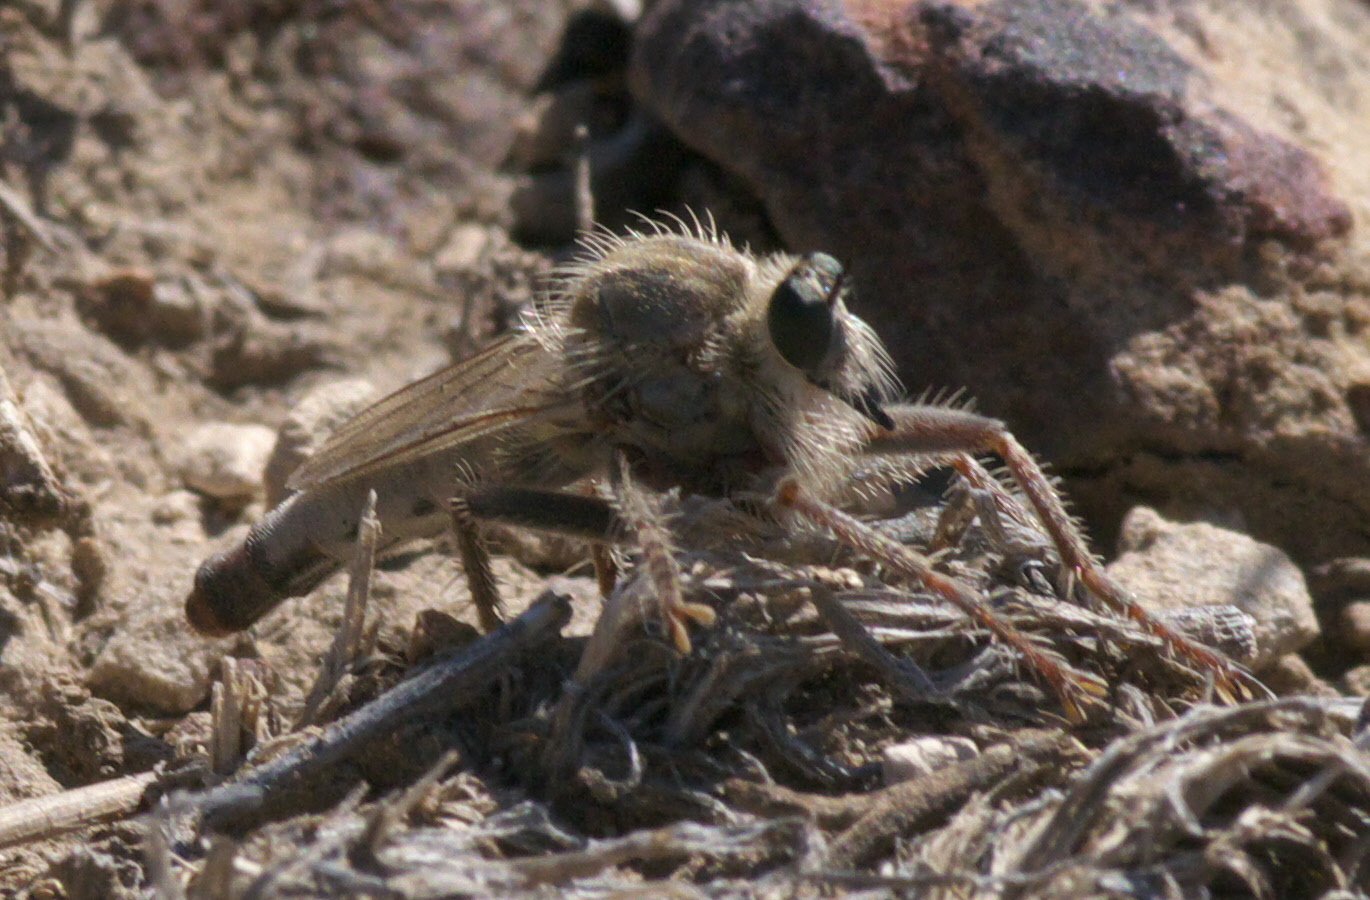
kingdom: Animalia
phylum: Arthropoda
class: Insecta
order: Diptera
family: Asilidae
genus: Scleropogon
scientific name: Scleropogon picticornis
